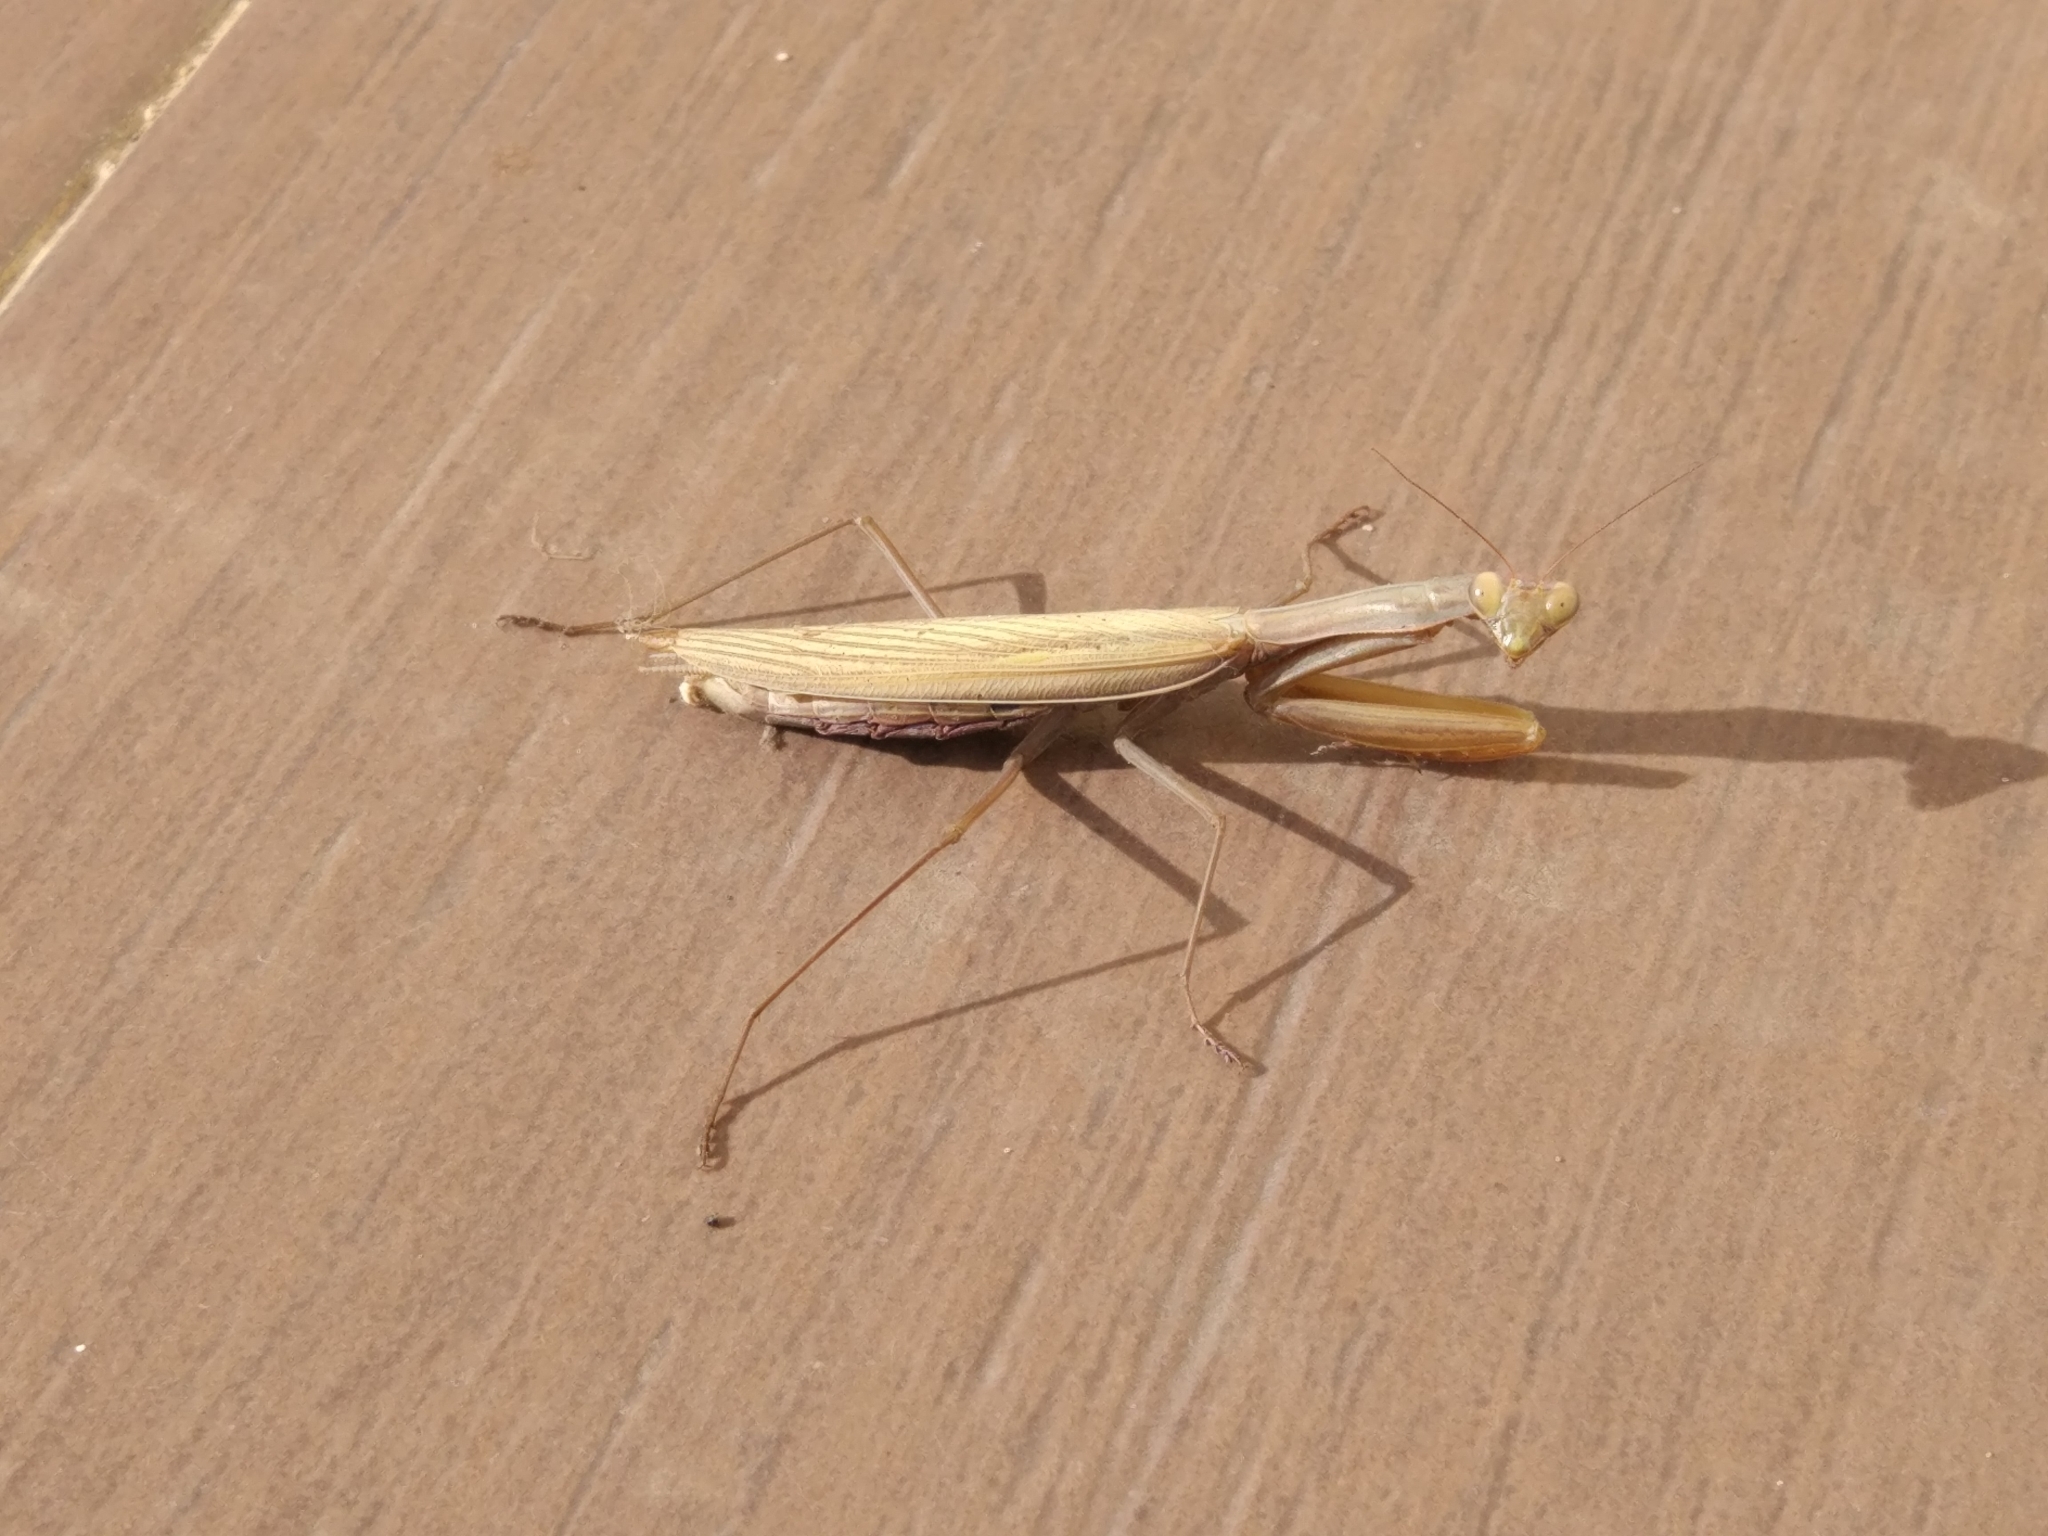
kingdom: Animalia
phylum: Arthropoda
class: Insecta
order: Mantodea
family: Mantidae
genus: Mantis
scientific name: Mantis religiosa
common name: Praying mantis
